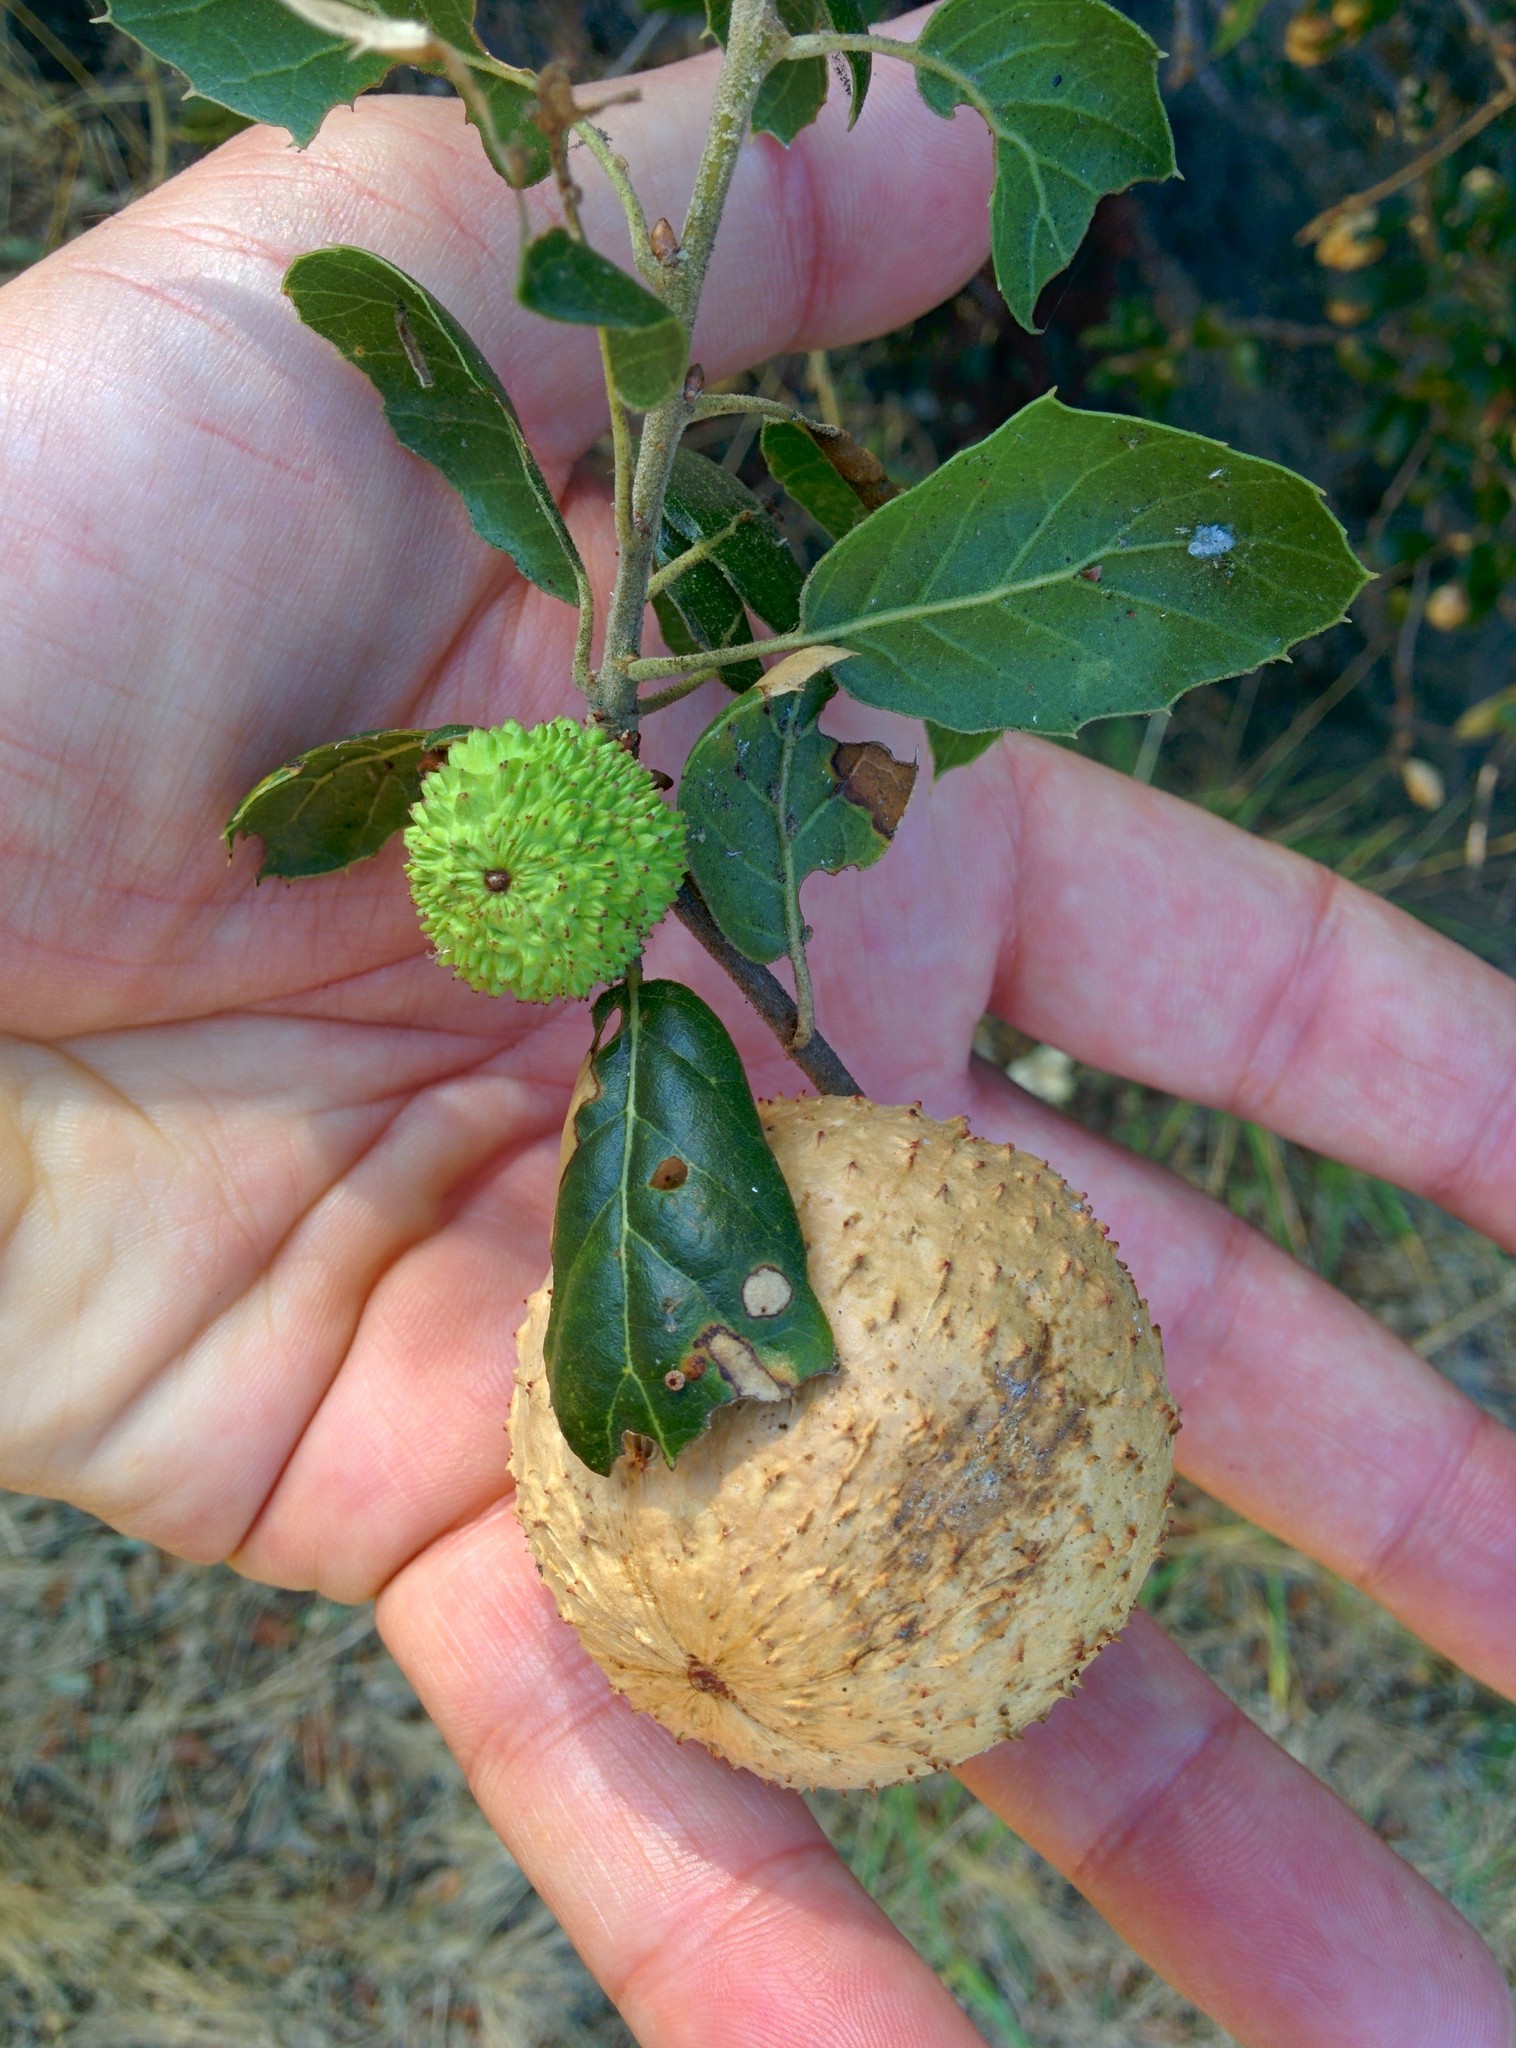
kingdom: Animalia
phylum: Arthropoda
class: Insecta
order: Hymenoptera
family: Cynipidae
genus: Amphibolips
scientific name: Amphibolips quercuspomiformis
